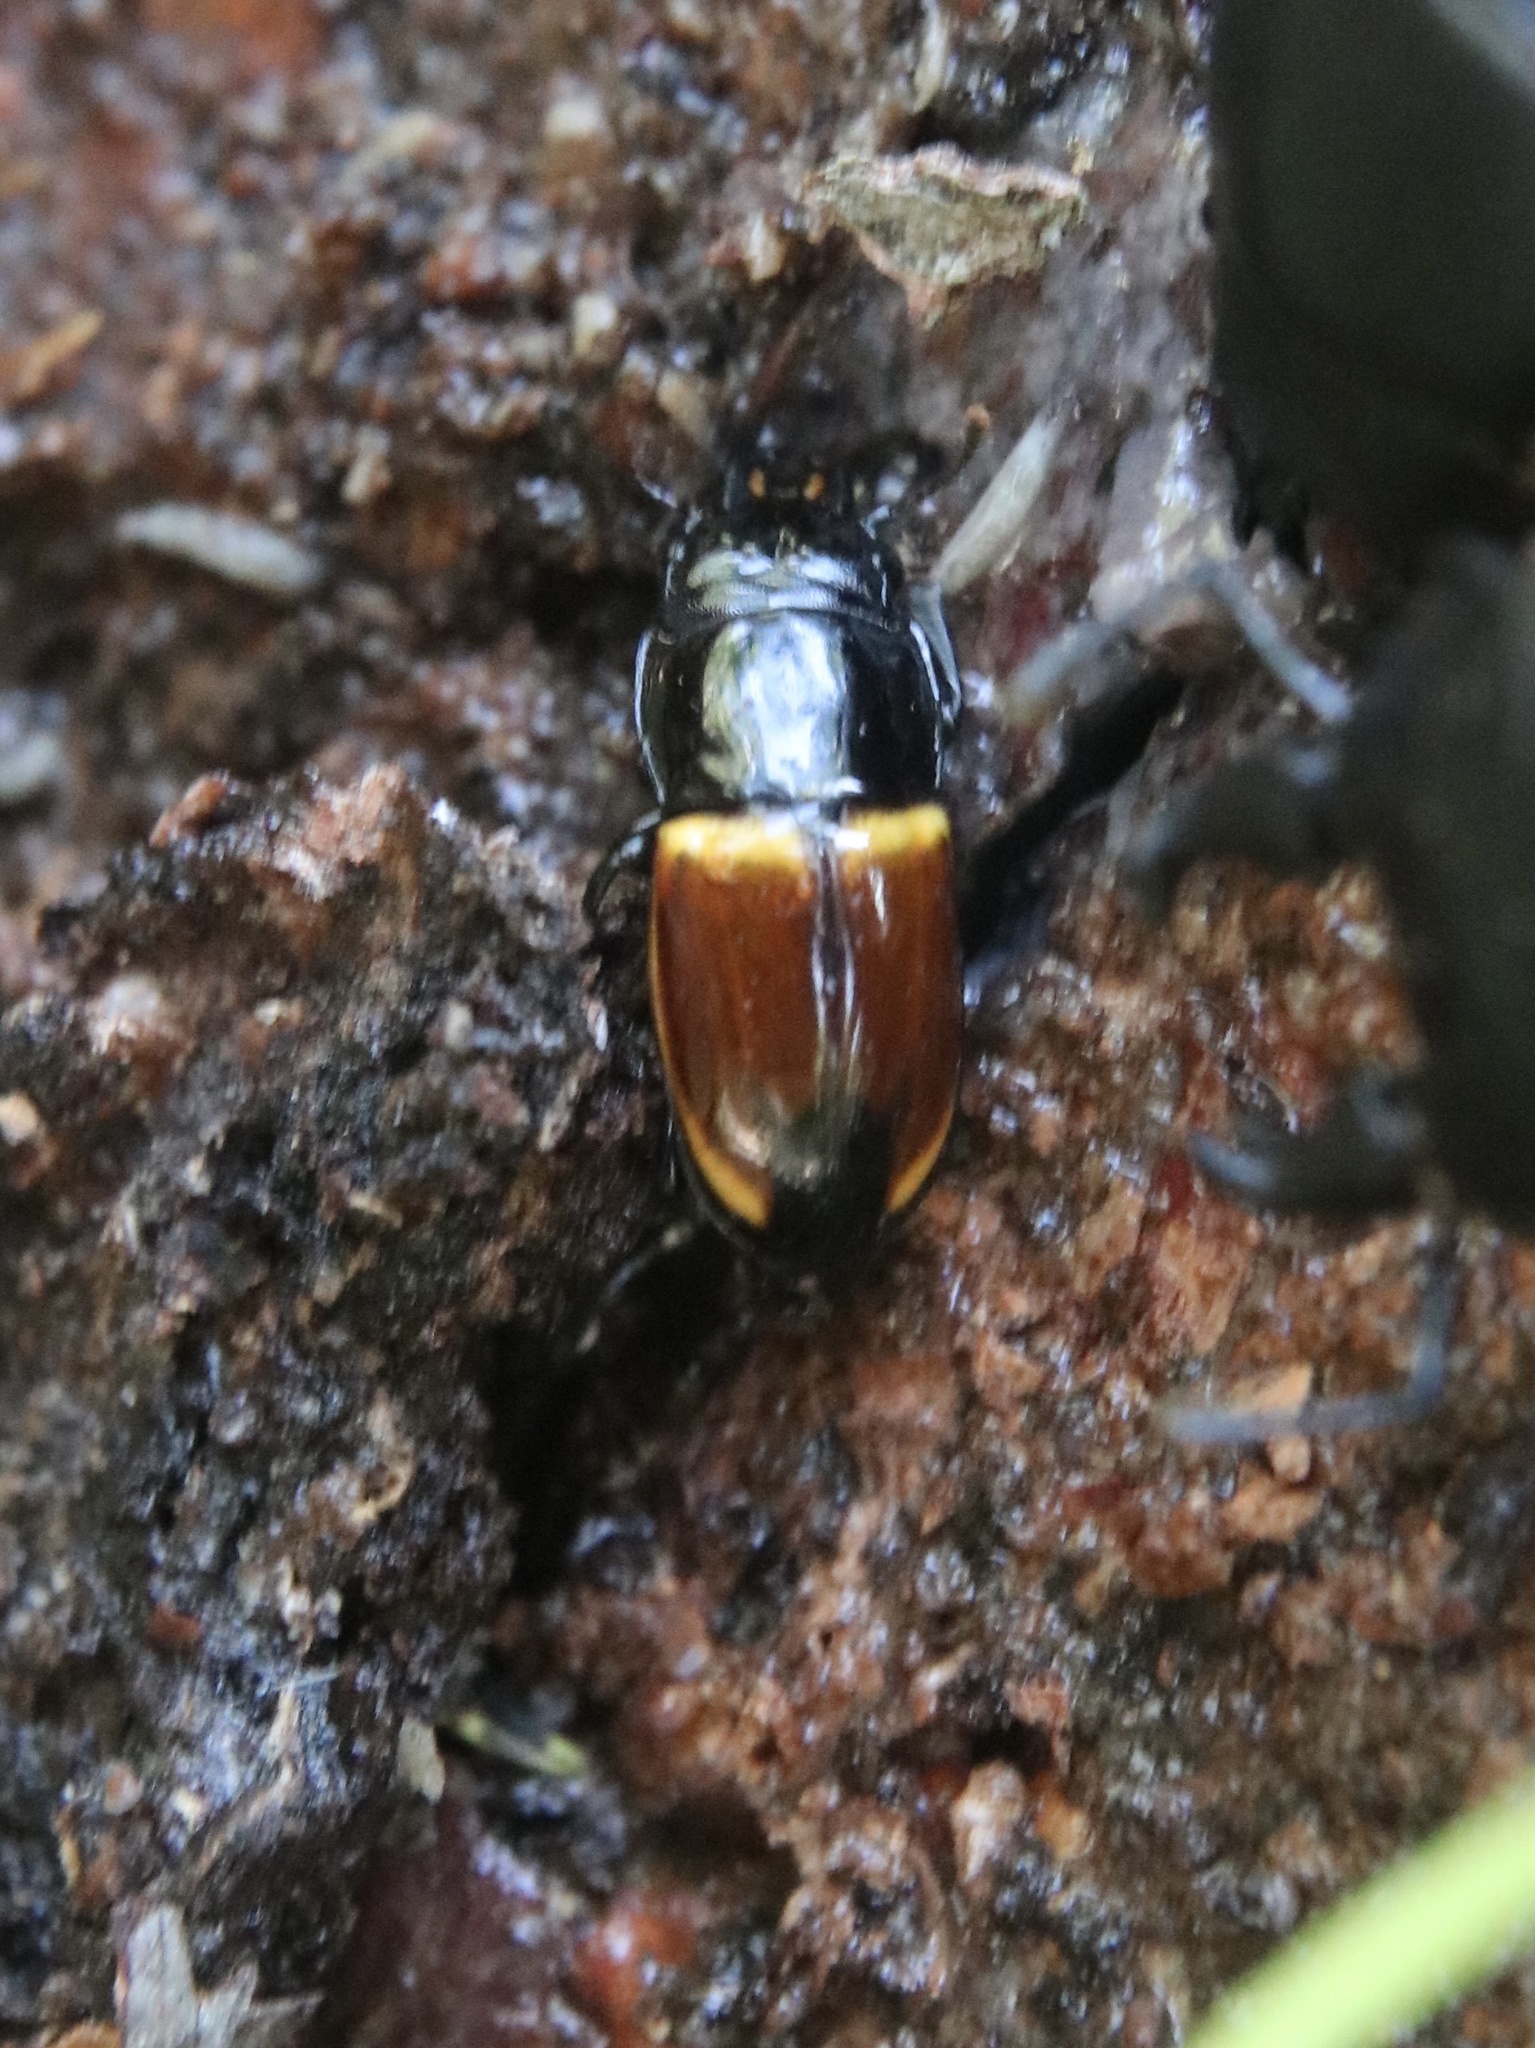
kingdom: Animalia
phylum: Arthropoda
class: Insecta
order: Coleoptera
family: Nitidulidae
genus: Paromia
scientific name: Paromia dorcoides
